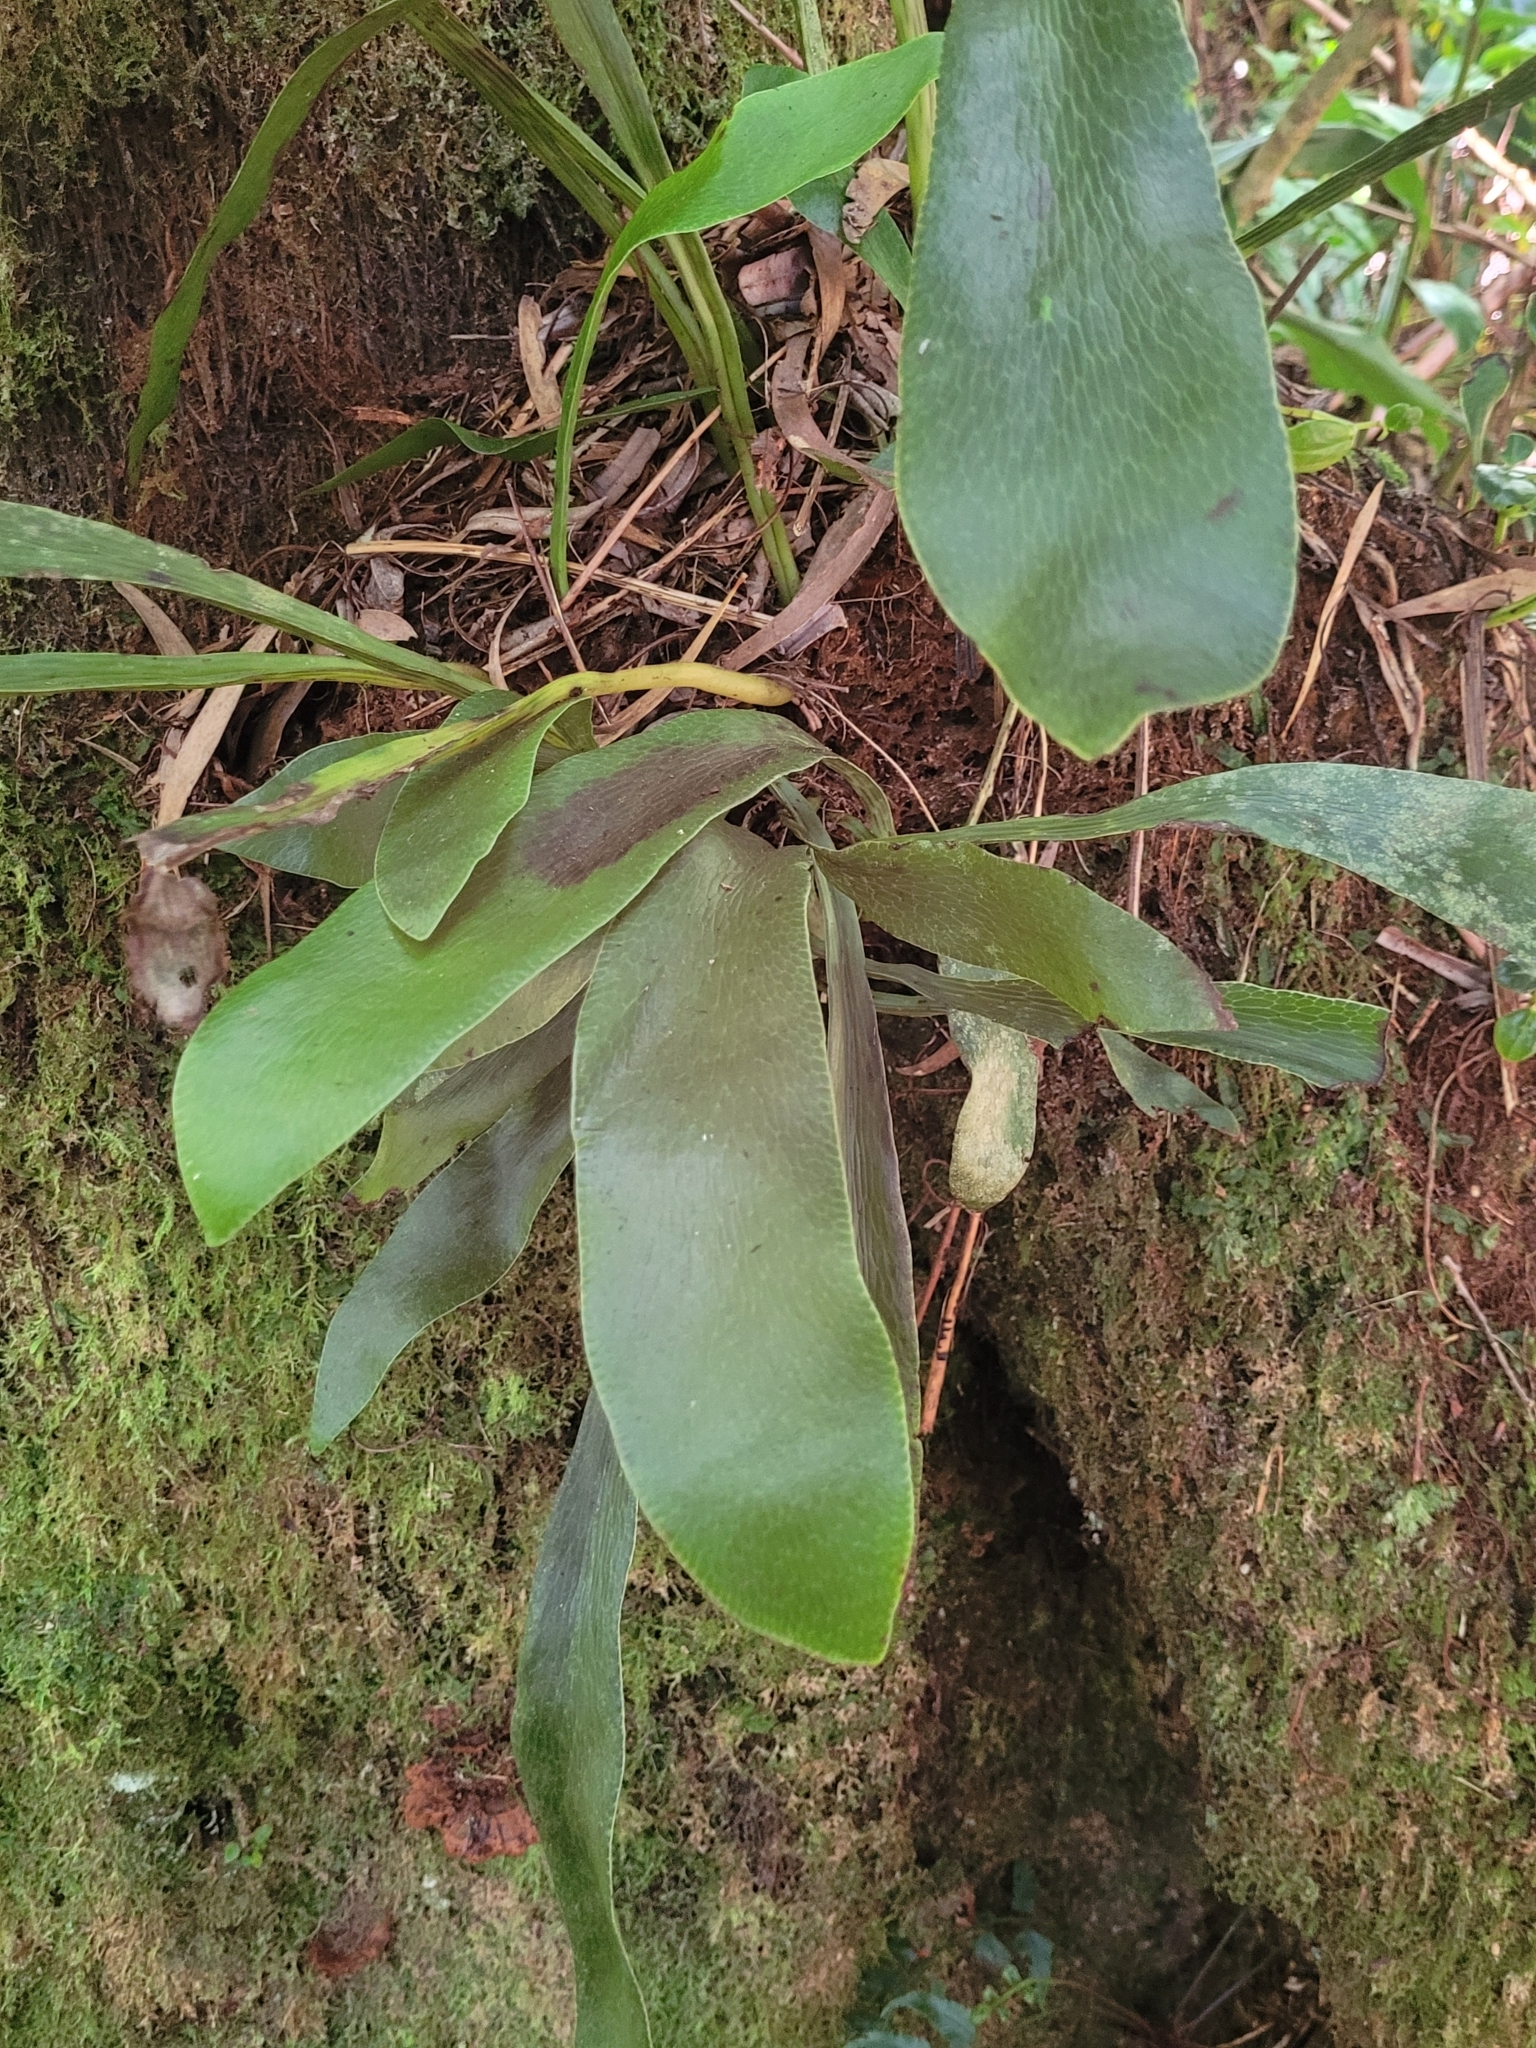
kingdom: Plantae
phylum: Tracheophyta
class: Polypodiopsida
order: Polypodiales
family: Pteridaceae
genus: Antrophyopsis
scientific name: Antrophyopsis boryana
